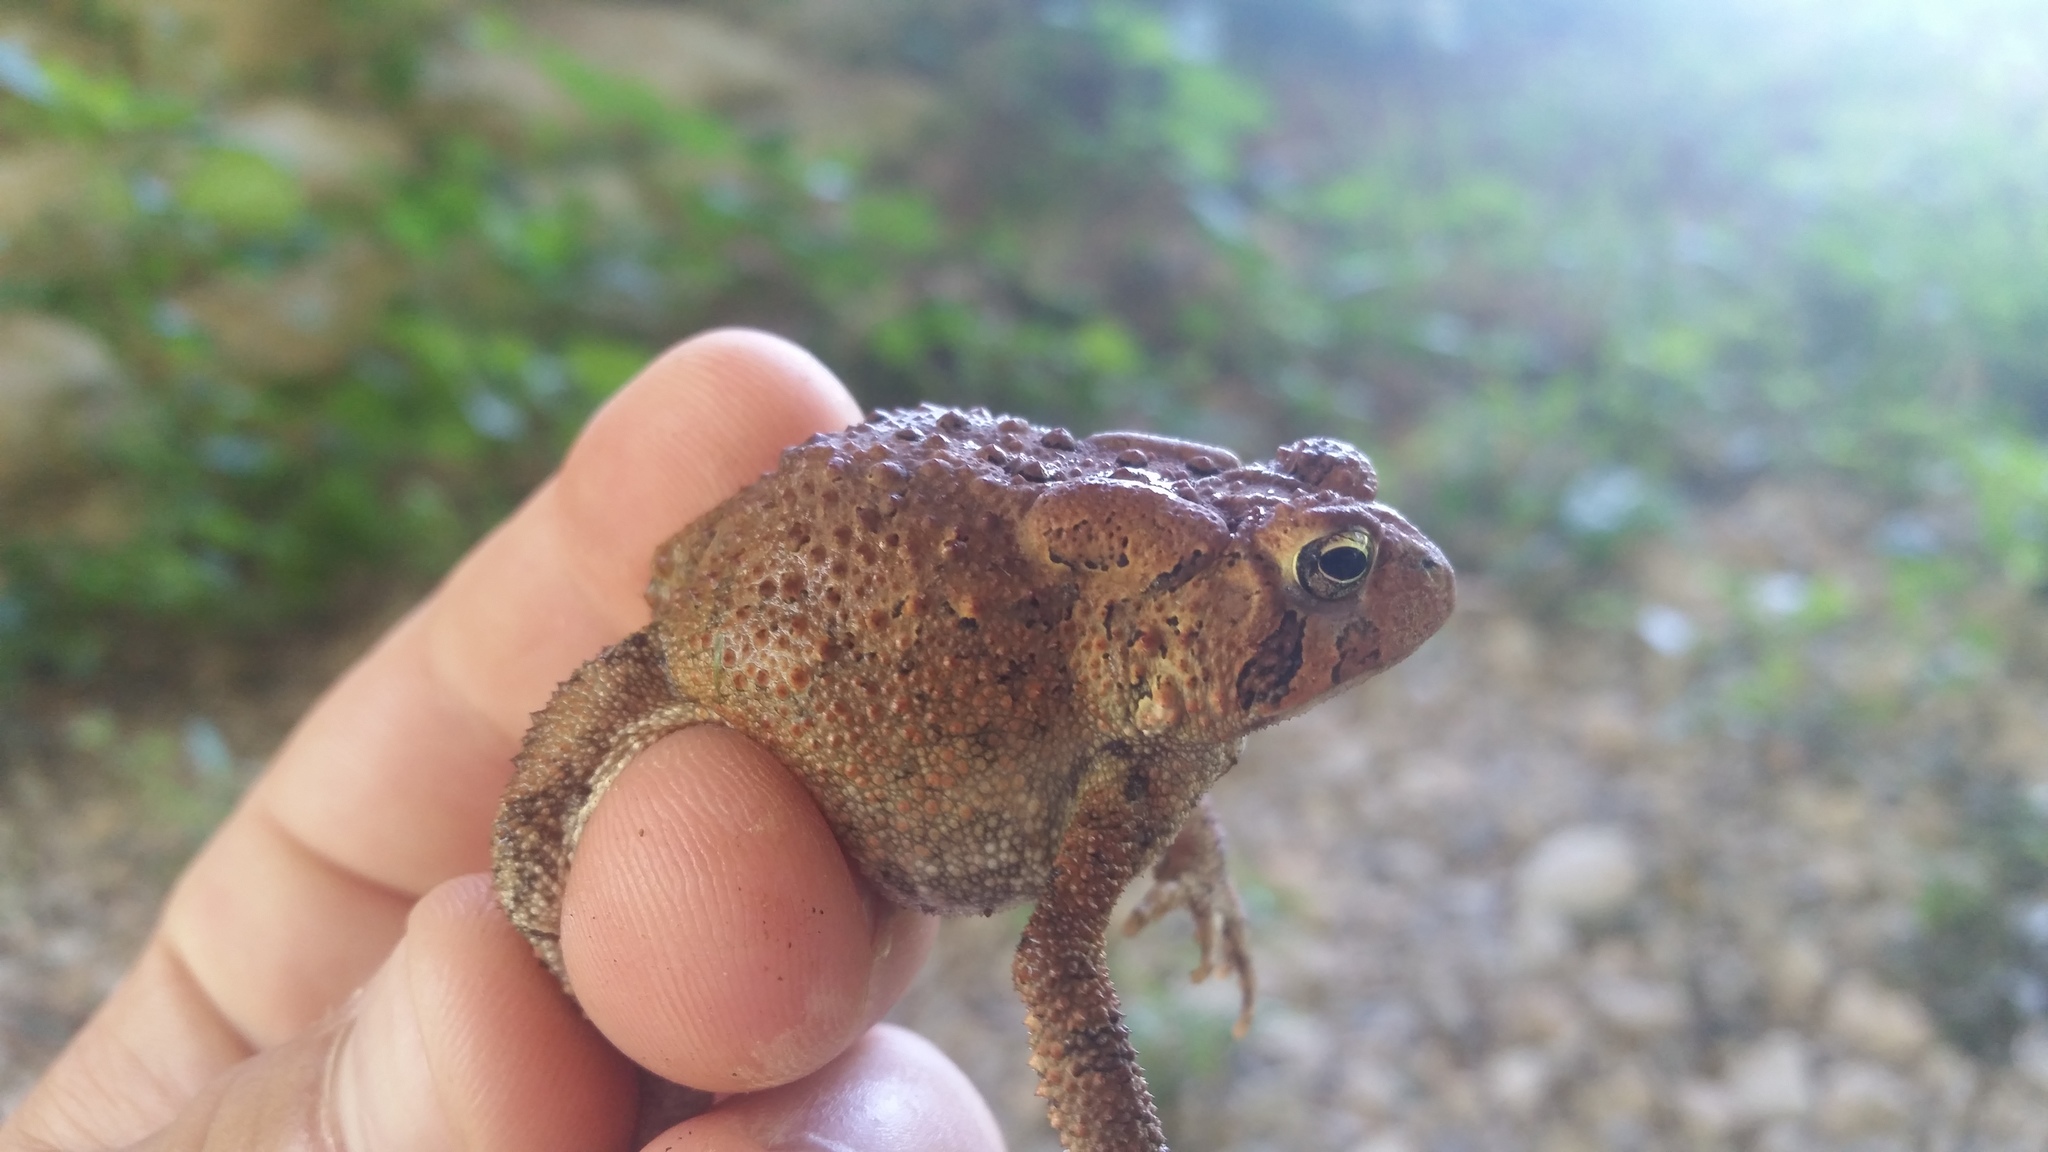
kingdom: Animalia
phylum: Chordata
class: Amphibia
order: Anura
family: Bufonidae
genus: Anaxyrus
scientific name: Anaxyrus americanus
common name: American toad
